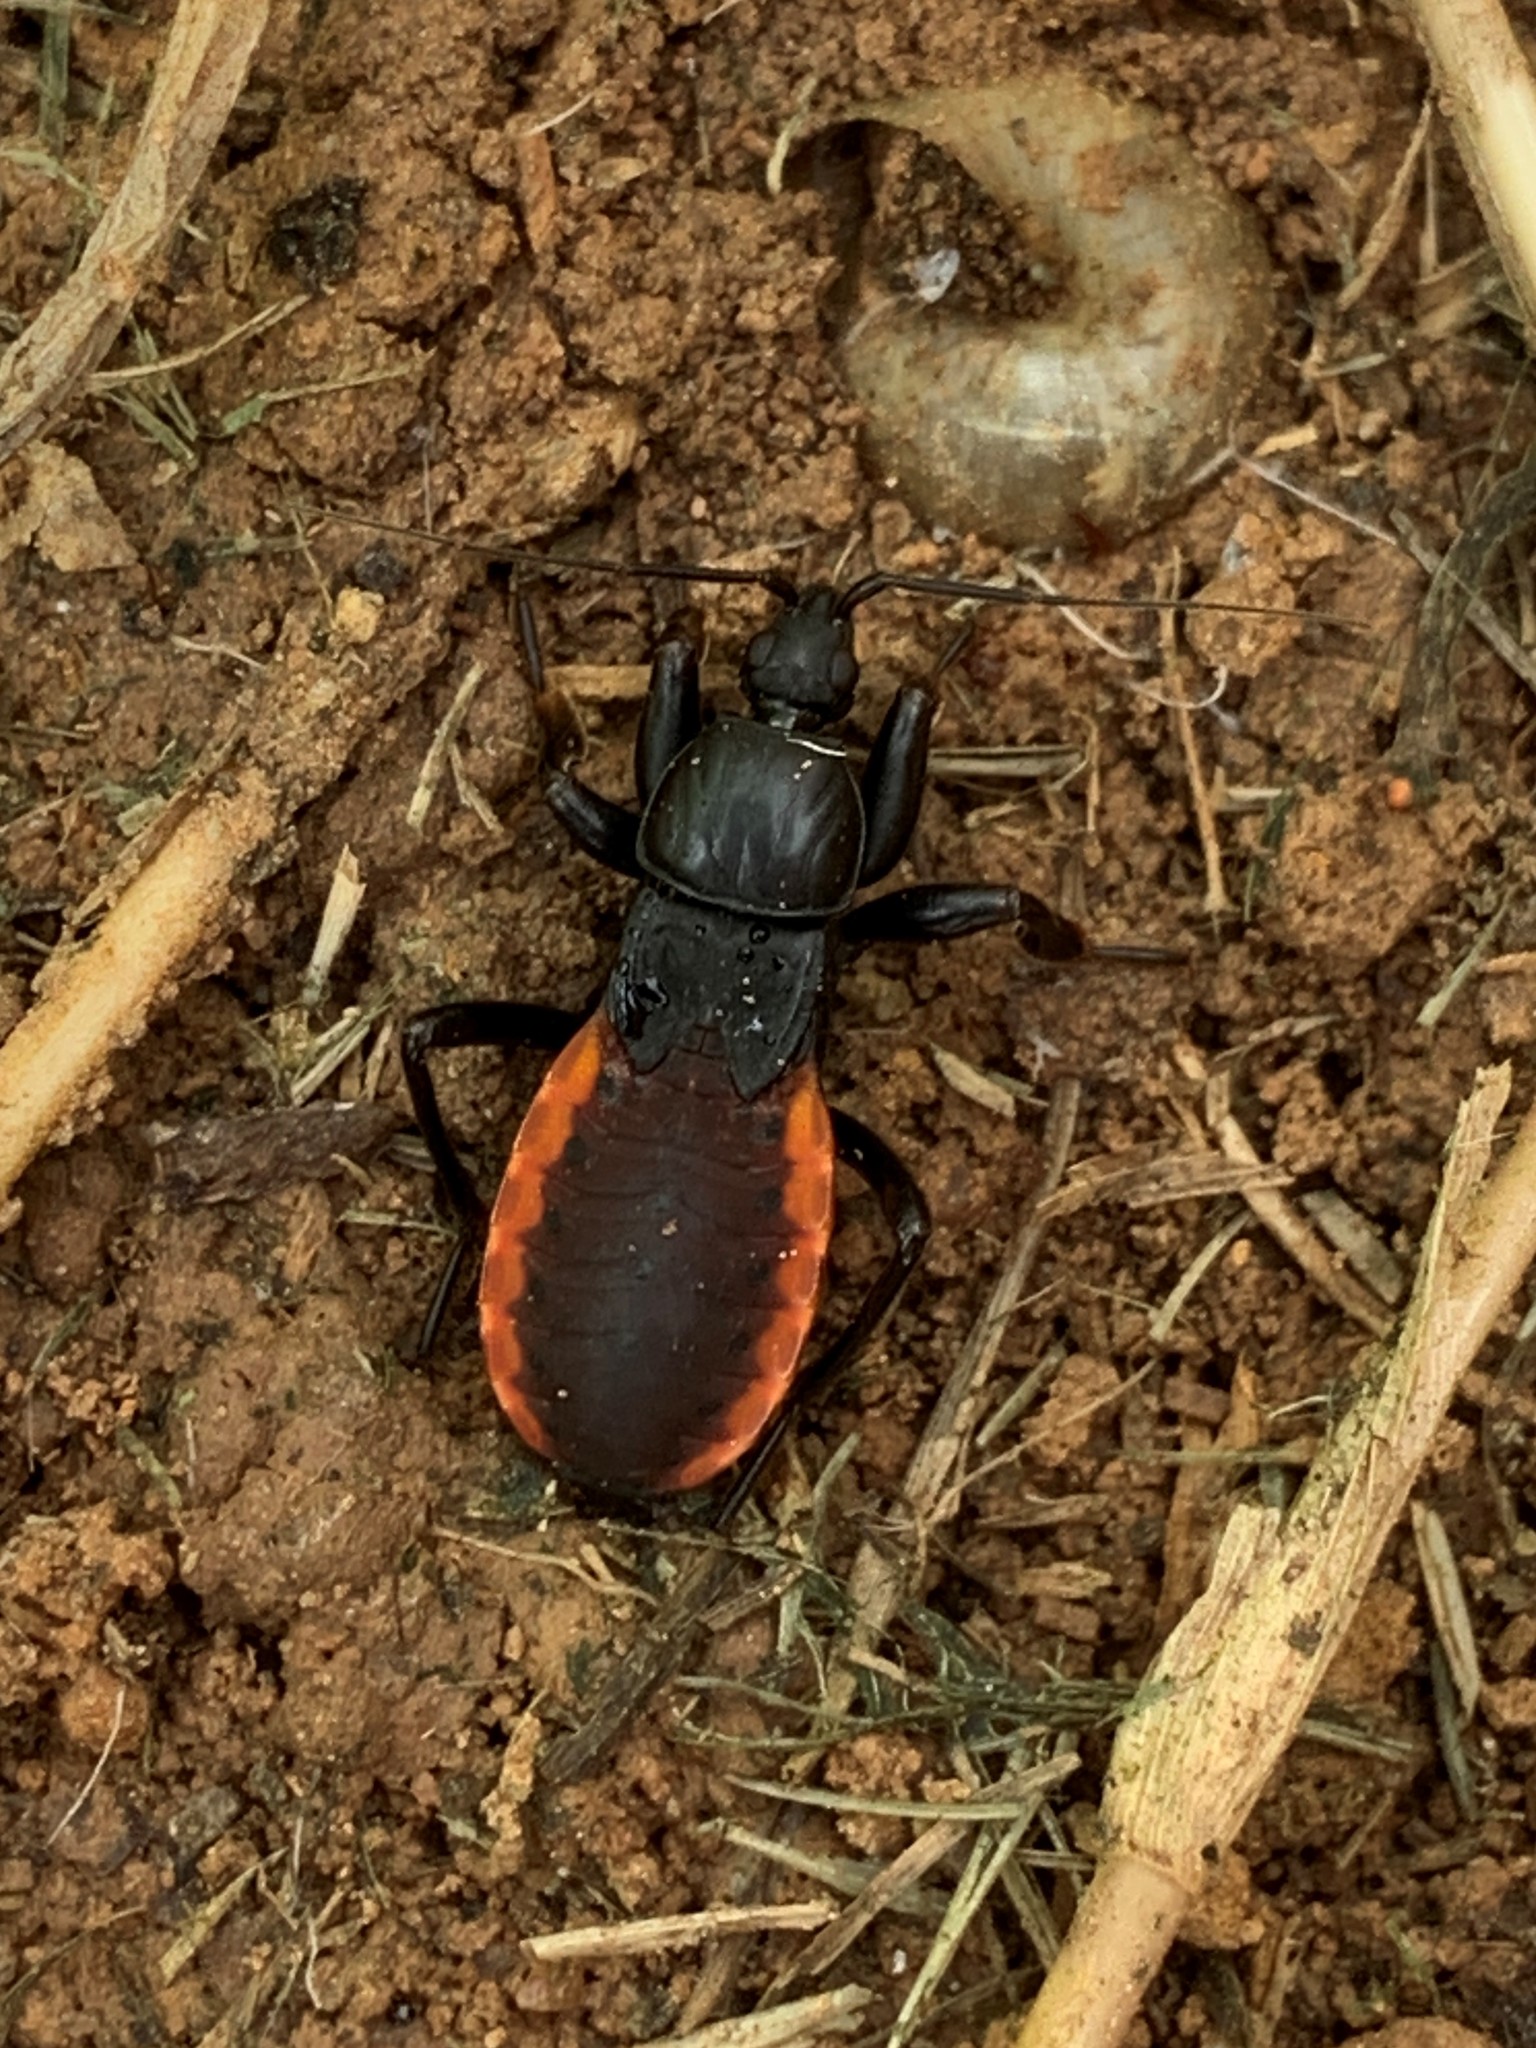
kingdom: Animalia
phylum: Arthropoda
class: Insecta
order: Hemiptera
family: Reduviidae
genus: Melanolestes
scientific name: Melanolestes picipes
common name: Assassin bug
